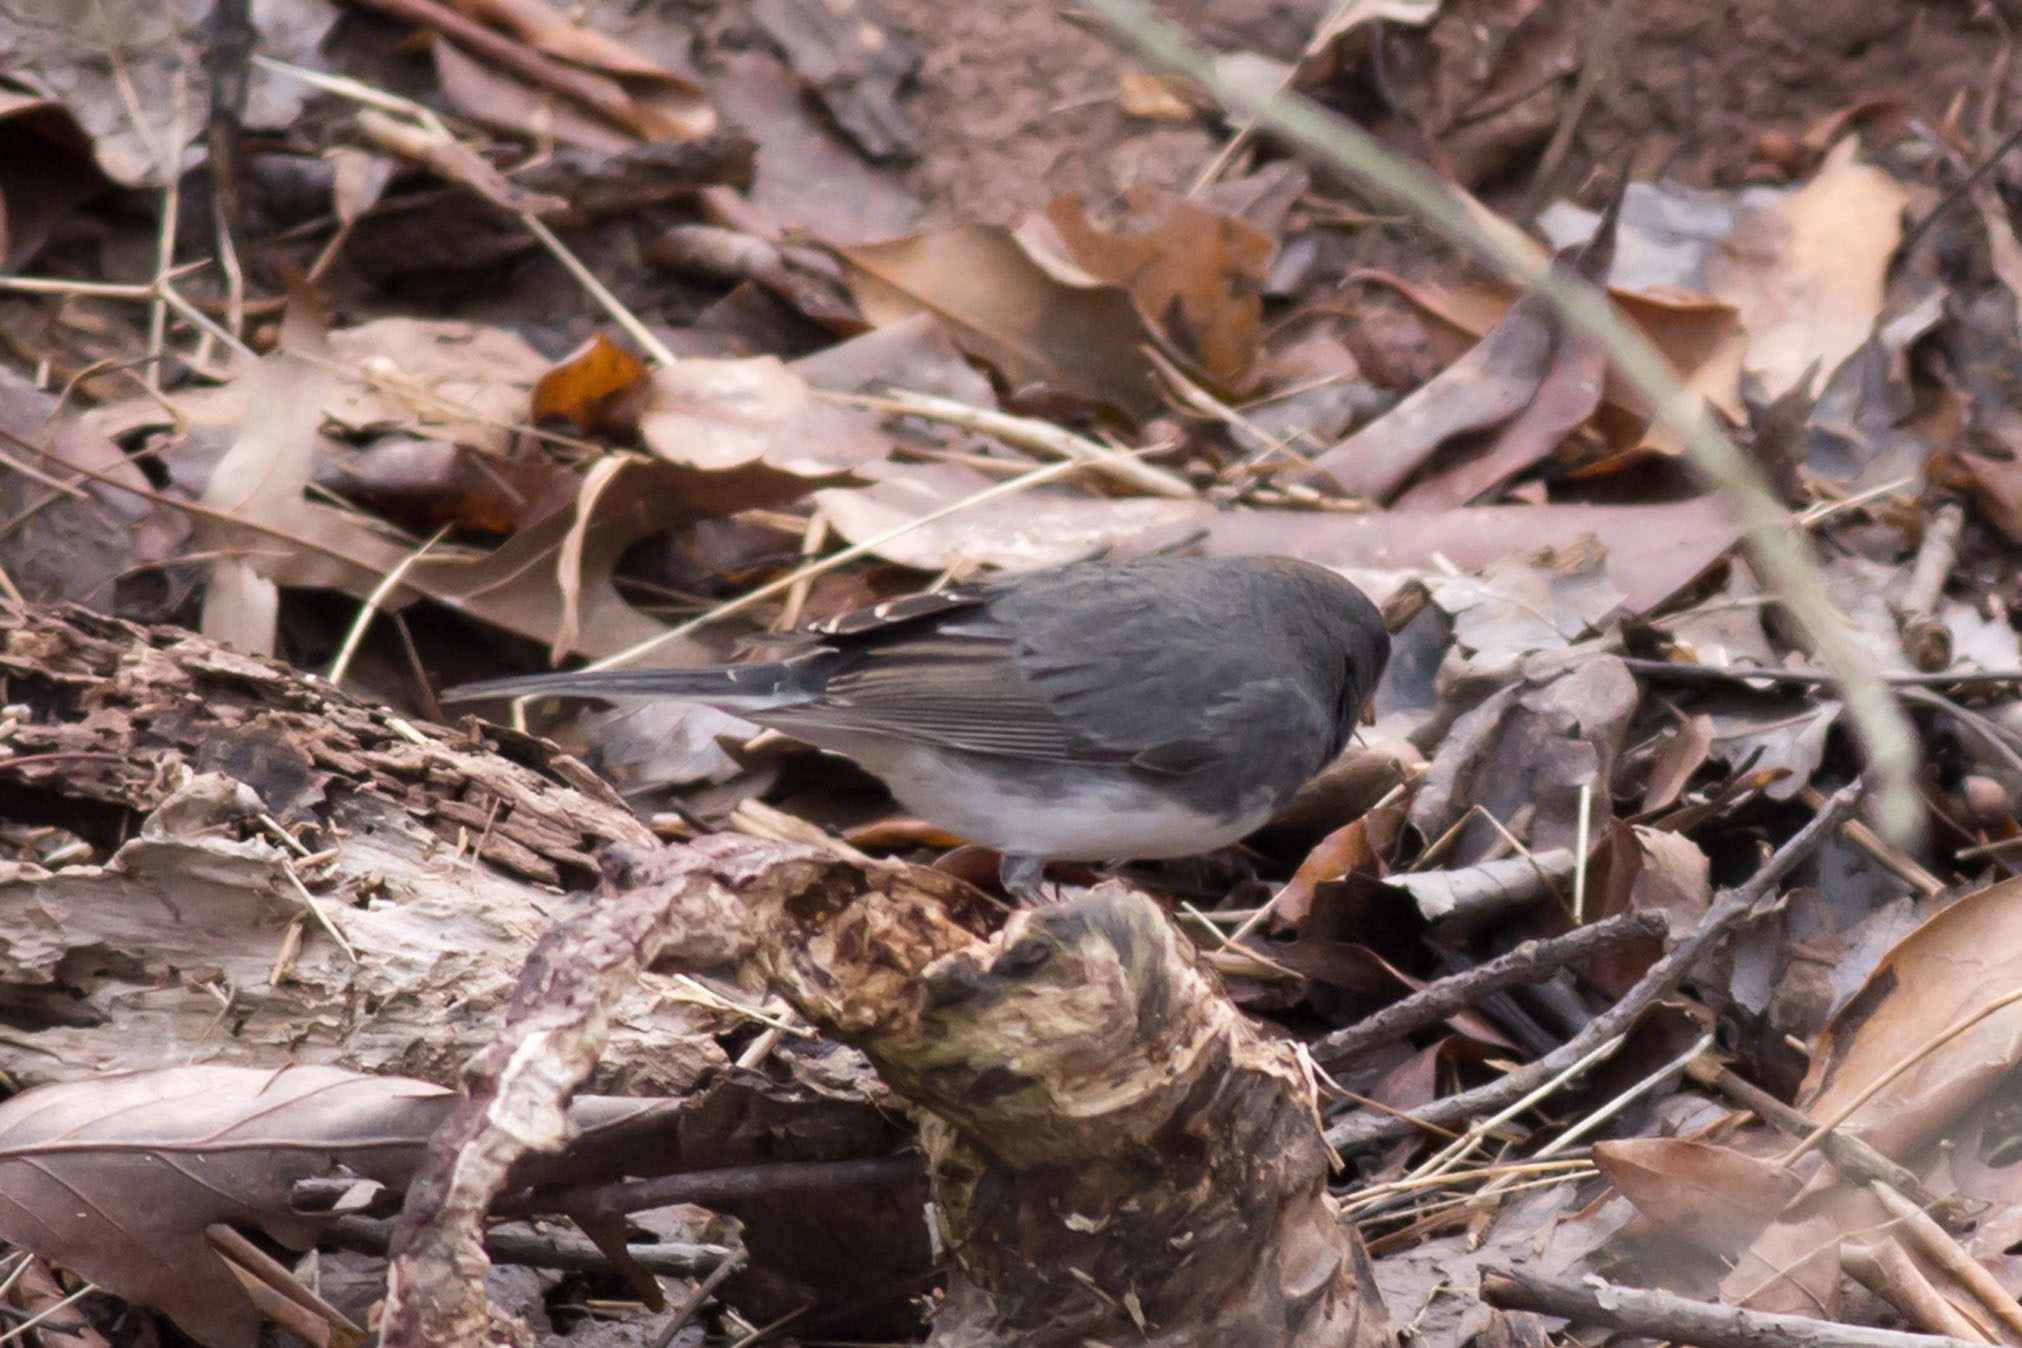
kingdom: Animalia
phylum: Chordata
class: Aves
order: Passeriformes
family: Passerellidae
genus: Junco
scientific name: Junco hyemalis
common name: Dark-eyed junco
